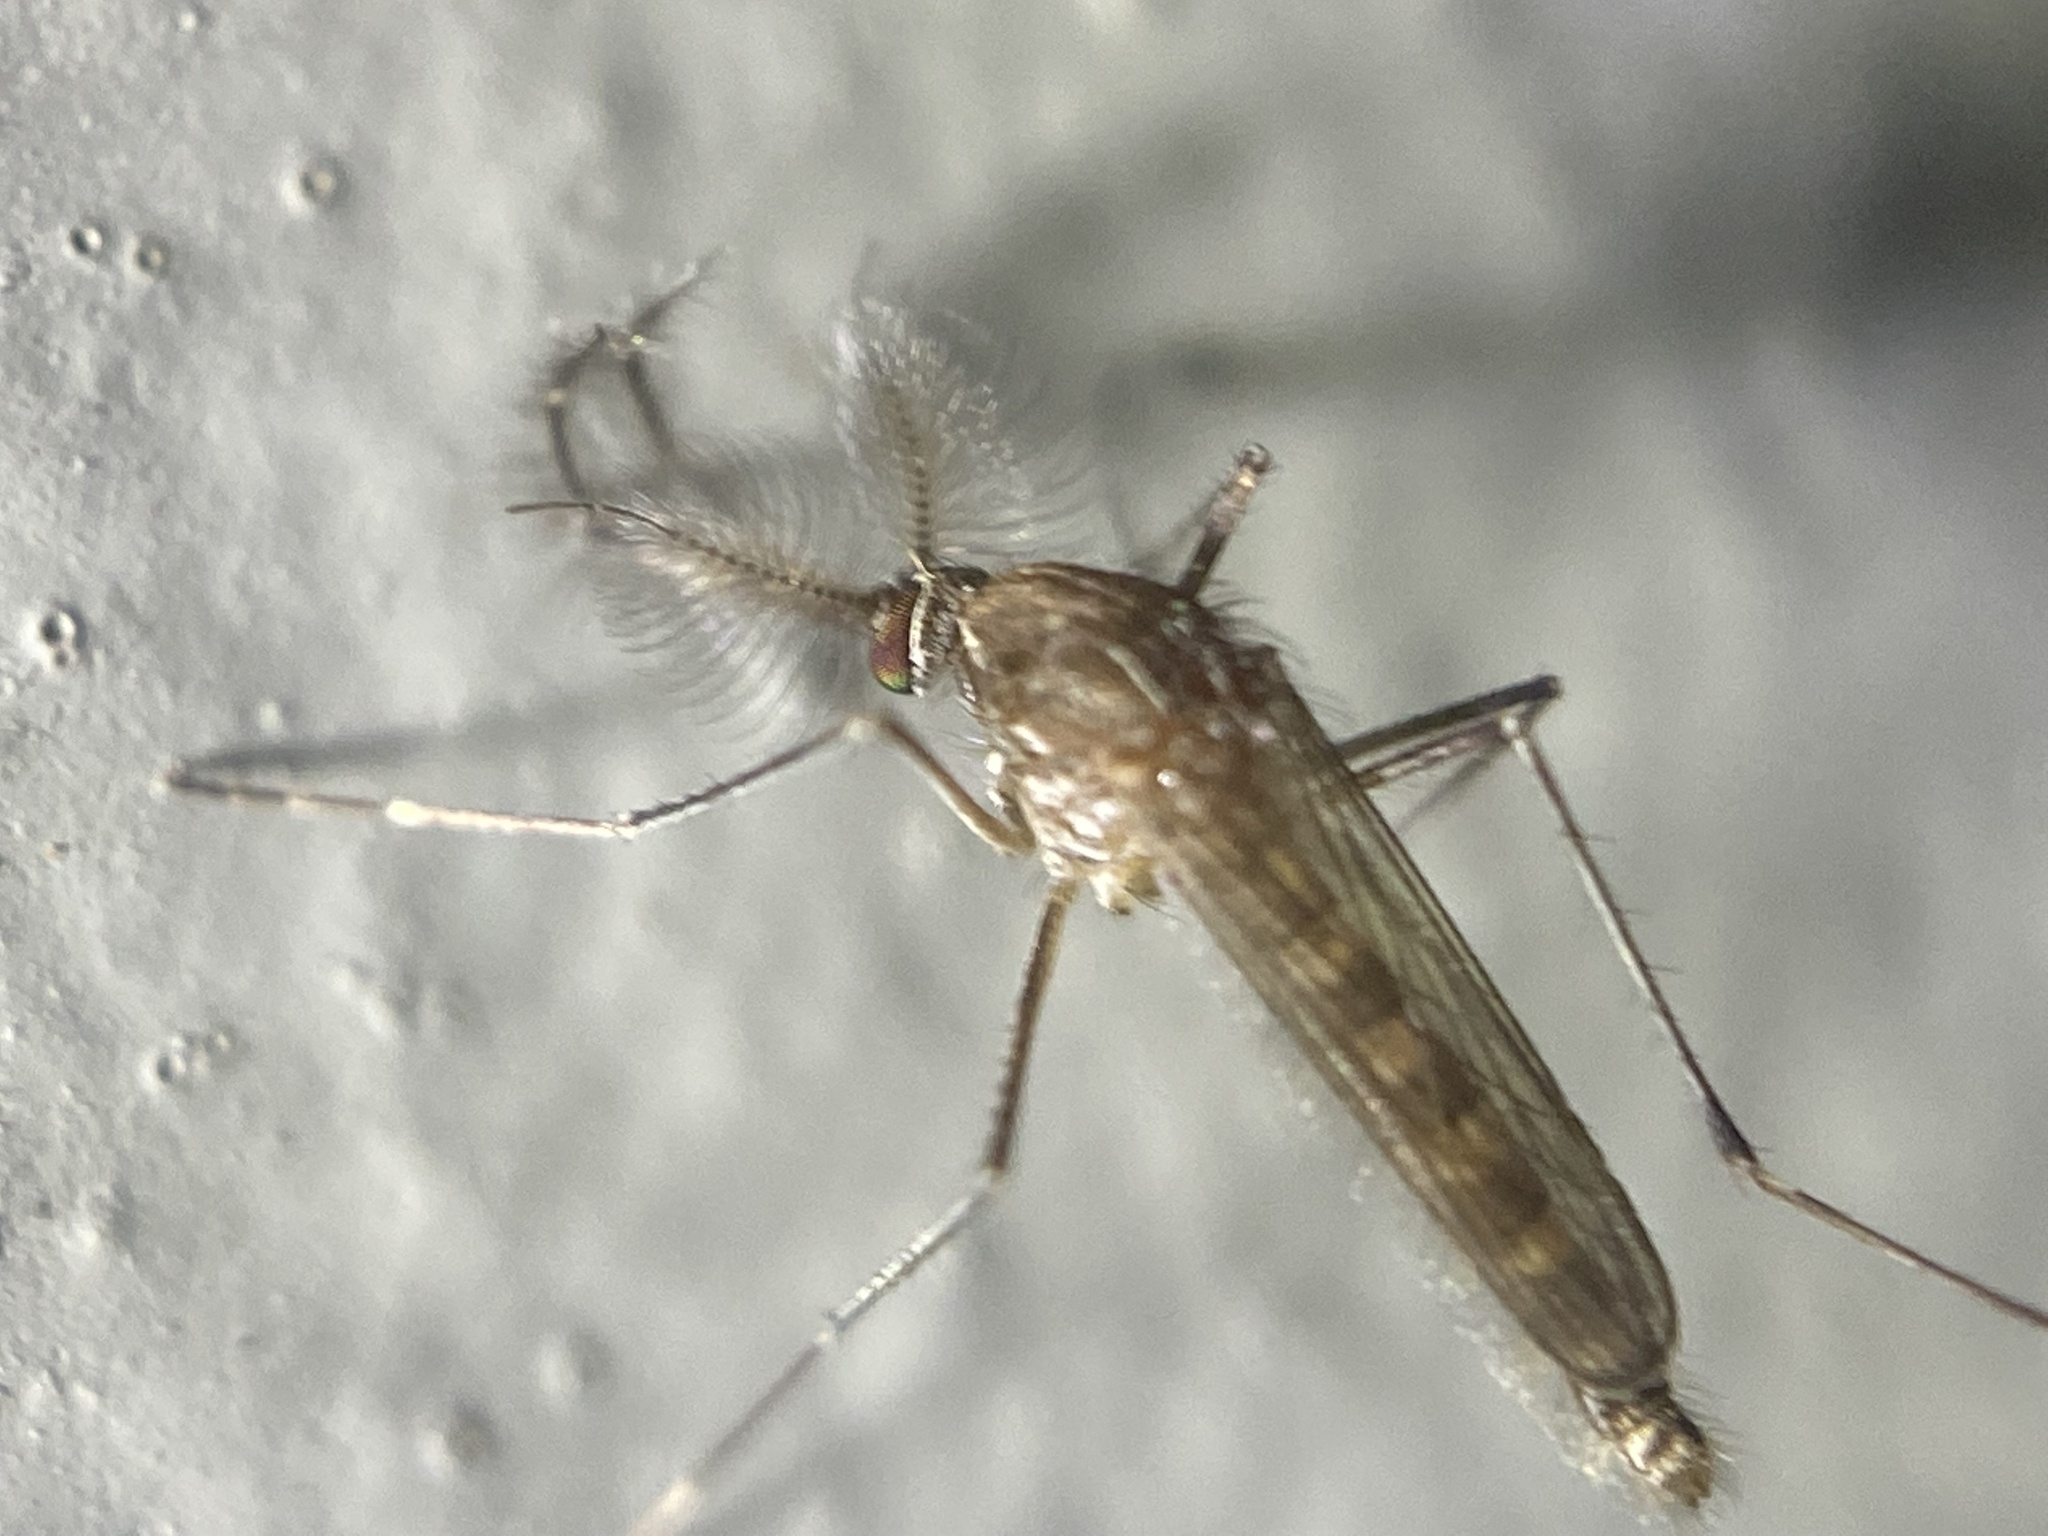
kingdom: Animalia
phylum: Arthropoda
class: Insecta
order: Diptera
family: Culicidae
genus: Culex
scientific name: Culex tarsalis
